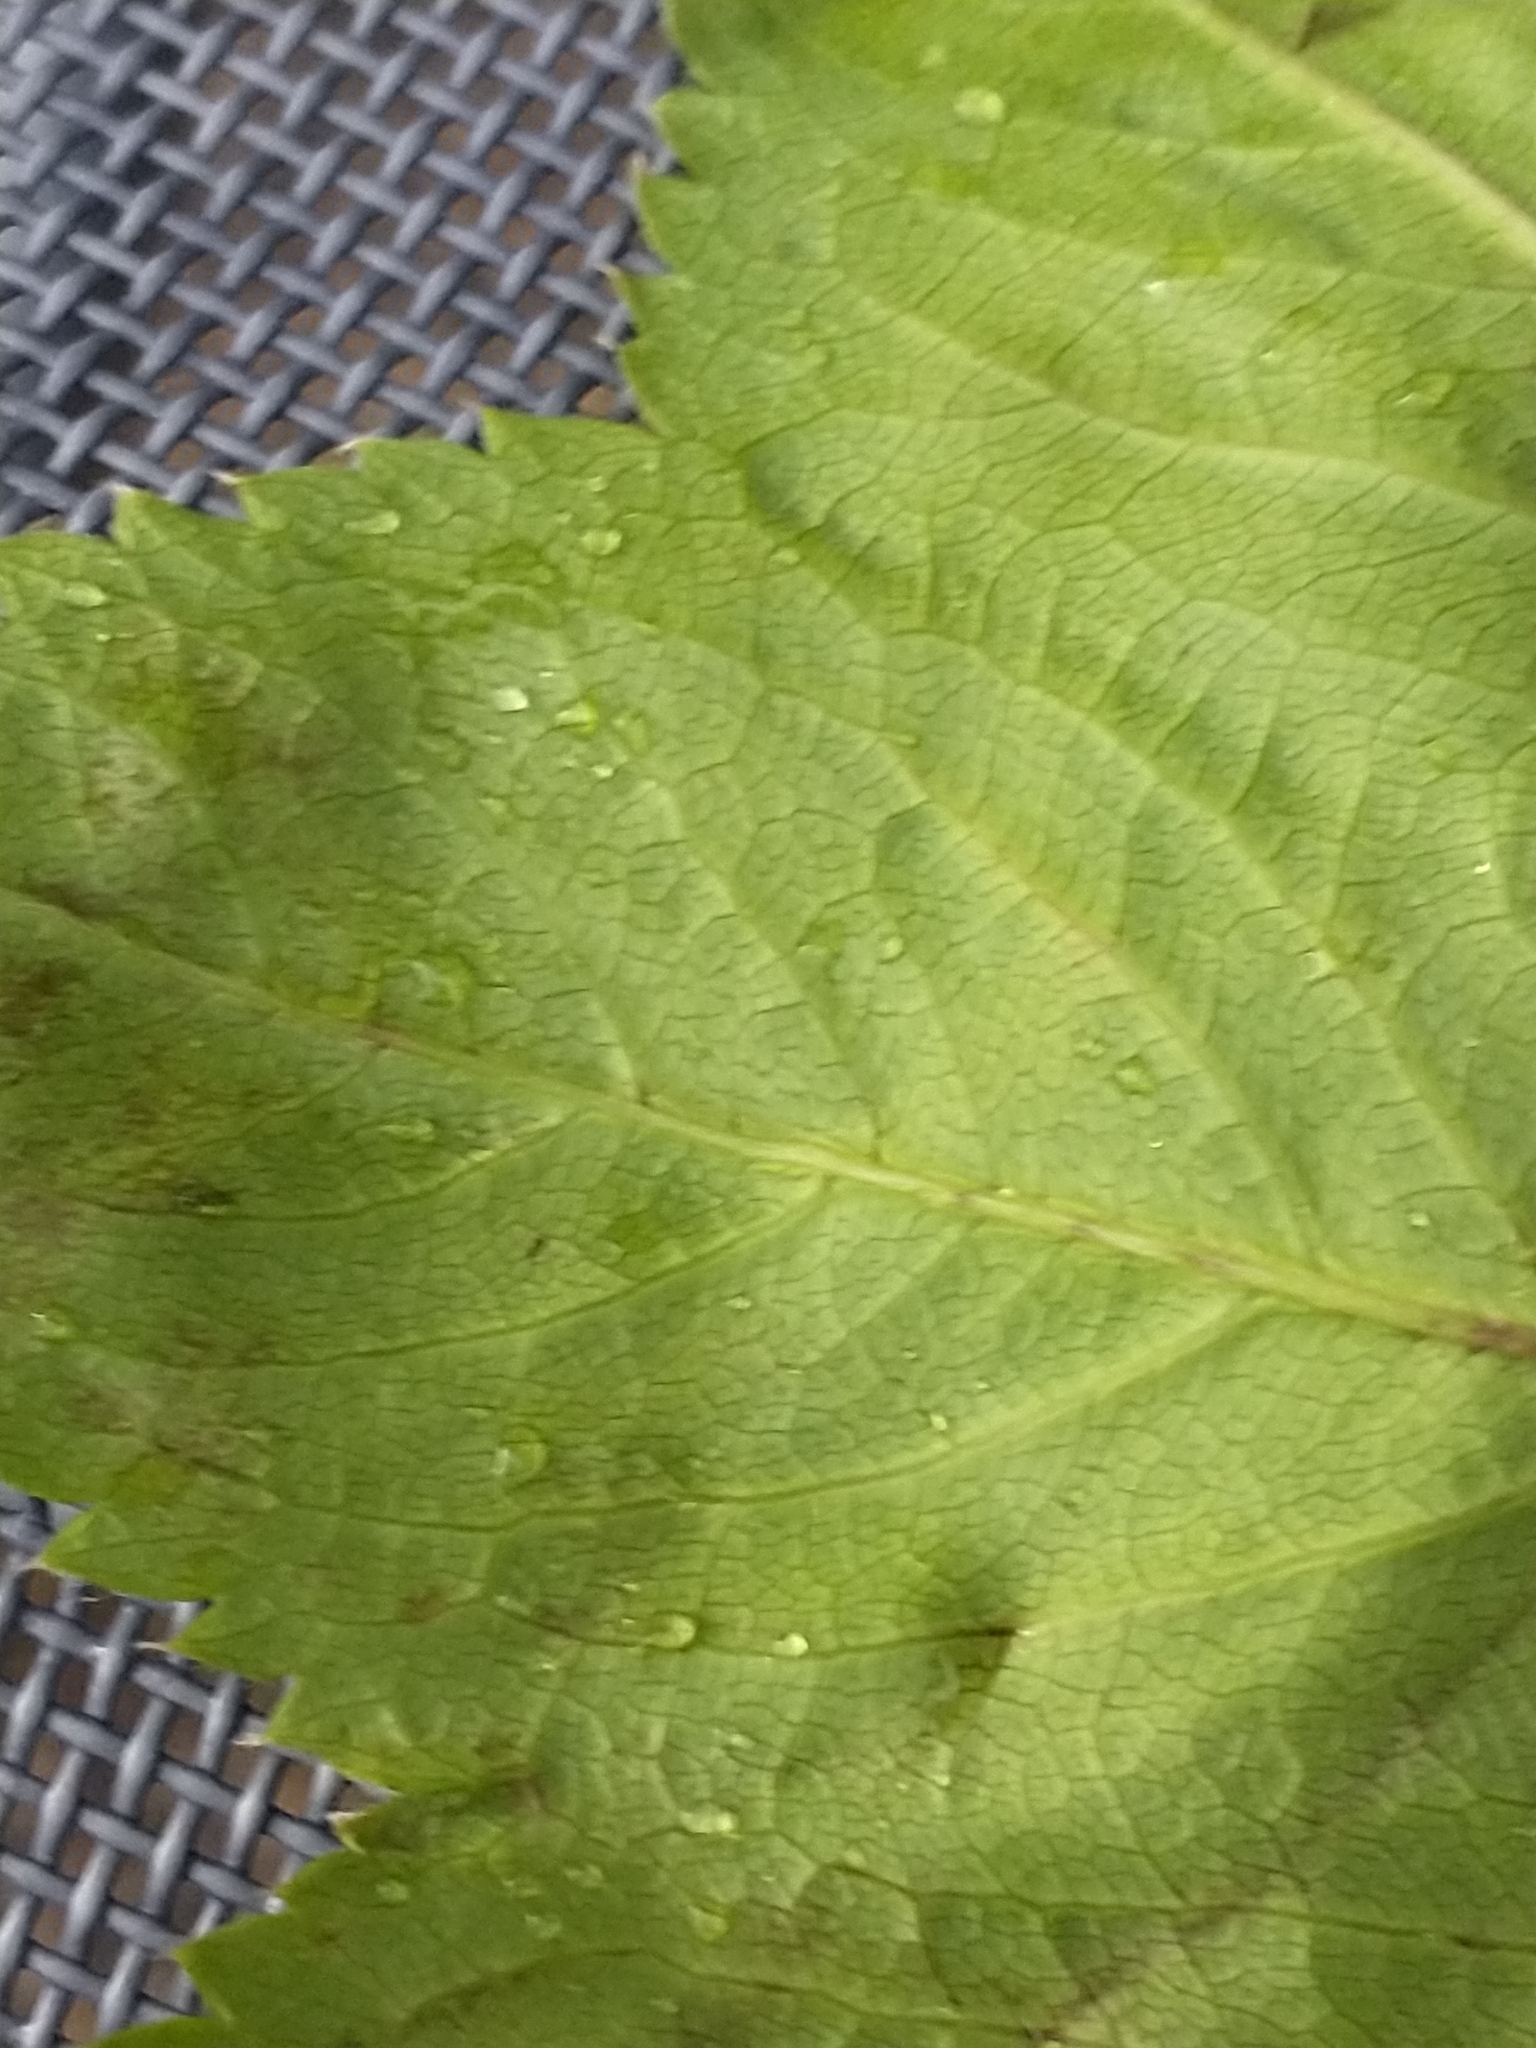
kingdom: Plantae
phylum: Tracheophyta
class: Magnoliopsida
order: Rosales
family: Rosaceae
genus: Alchemilla
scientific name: Alchemilla glabra
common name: Smooth lady's-mantle
